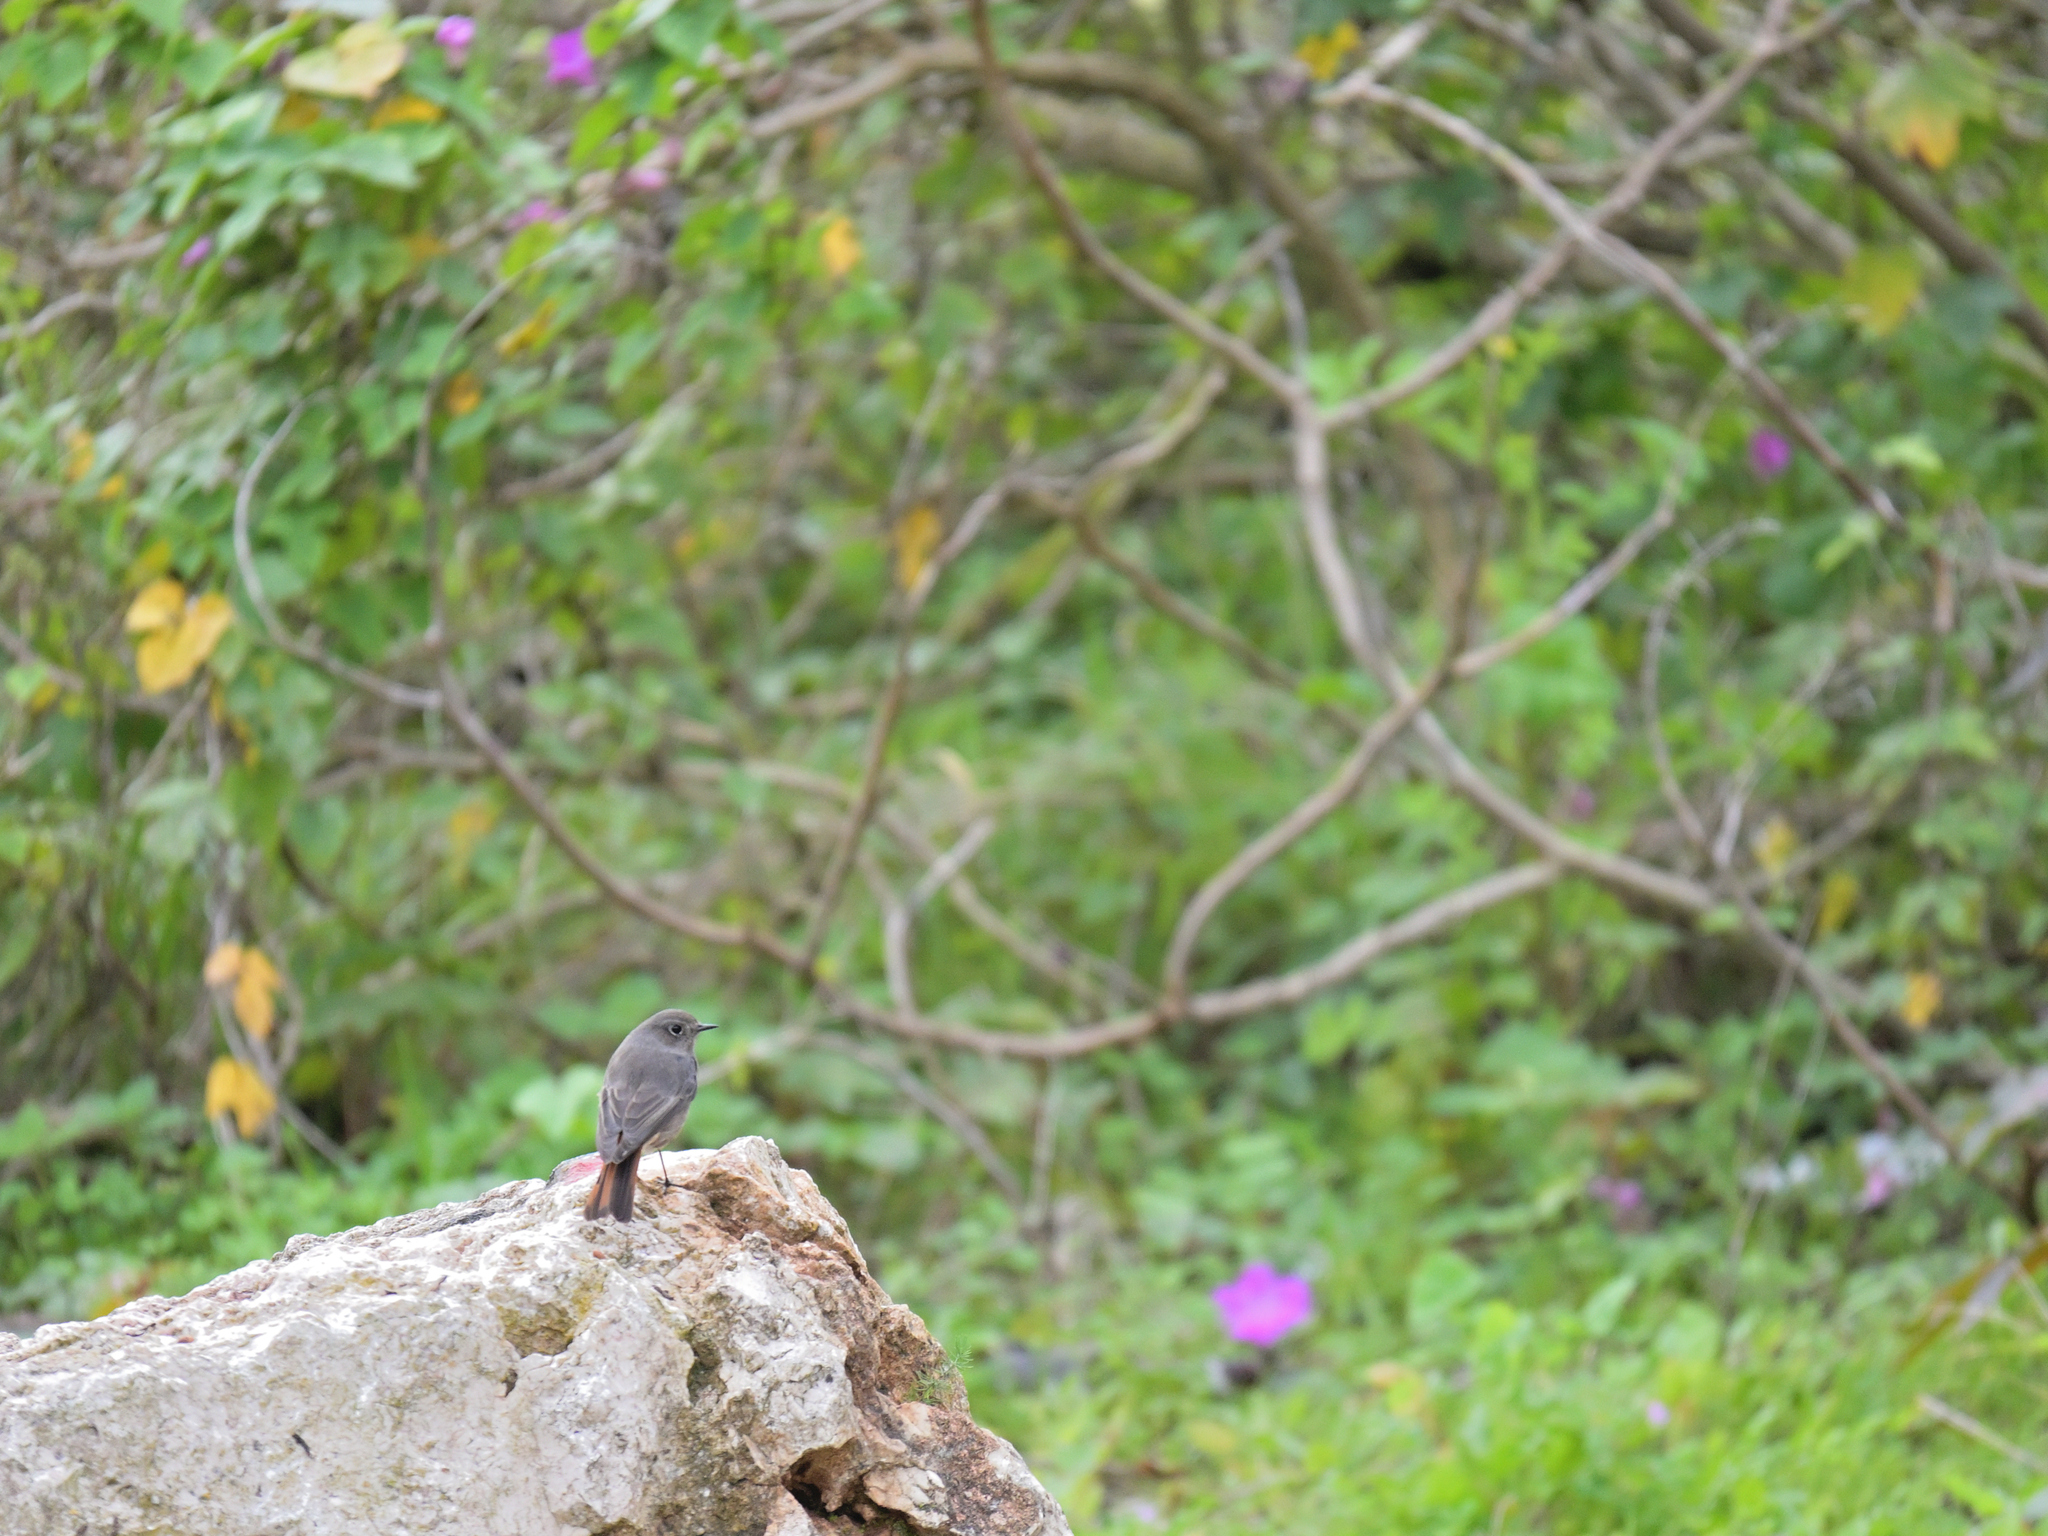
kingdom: Animalia
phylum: Chordata
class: Aves
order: Passeriformes
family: Muscicapidae
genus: Phoenicurus
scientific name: Phoenicurus ochruros
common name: Black redstart
